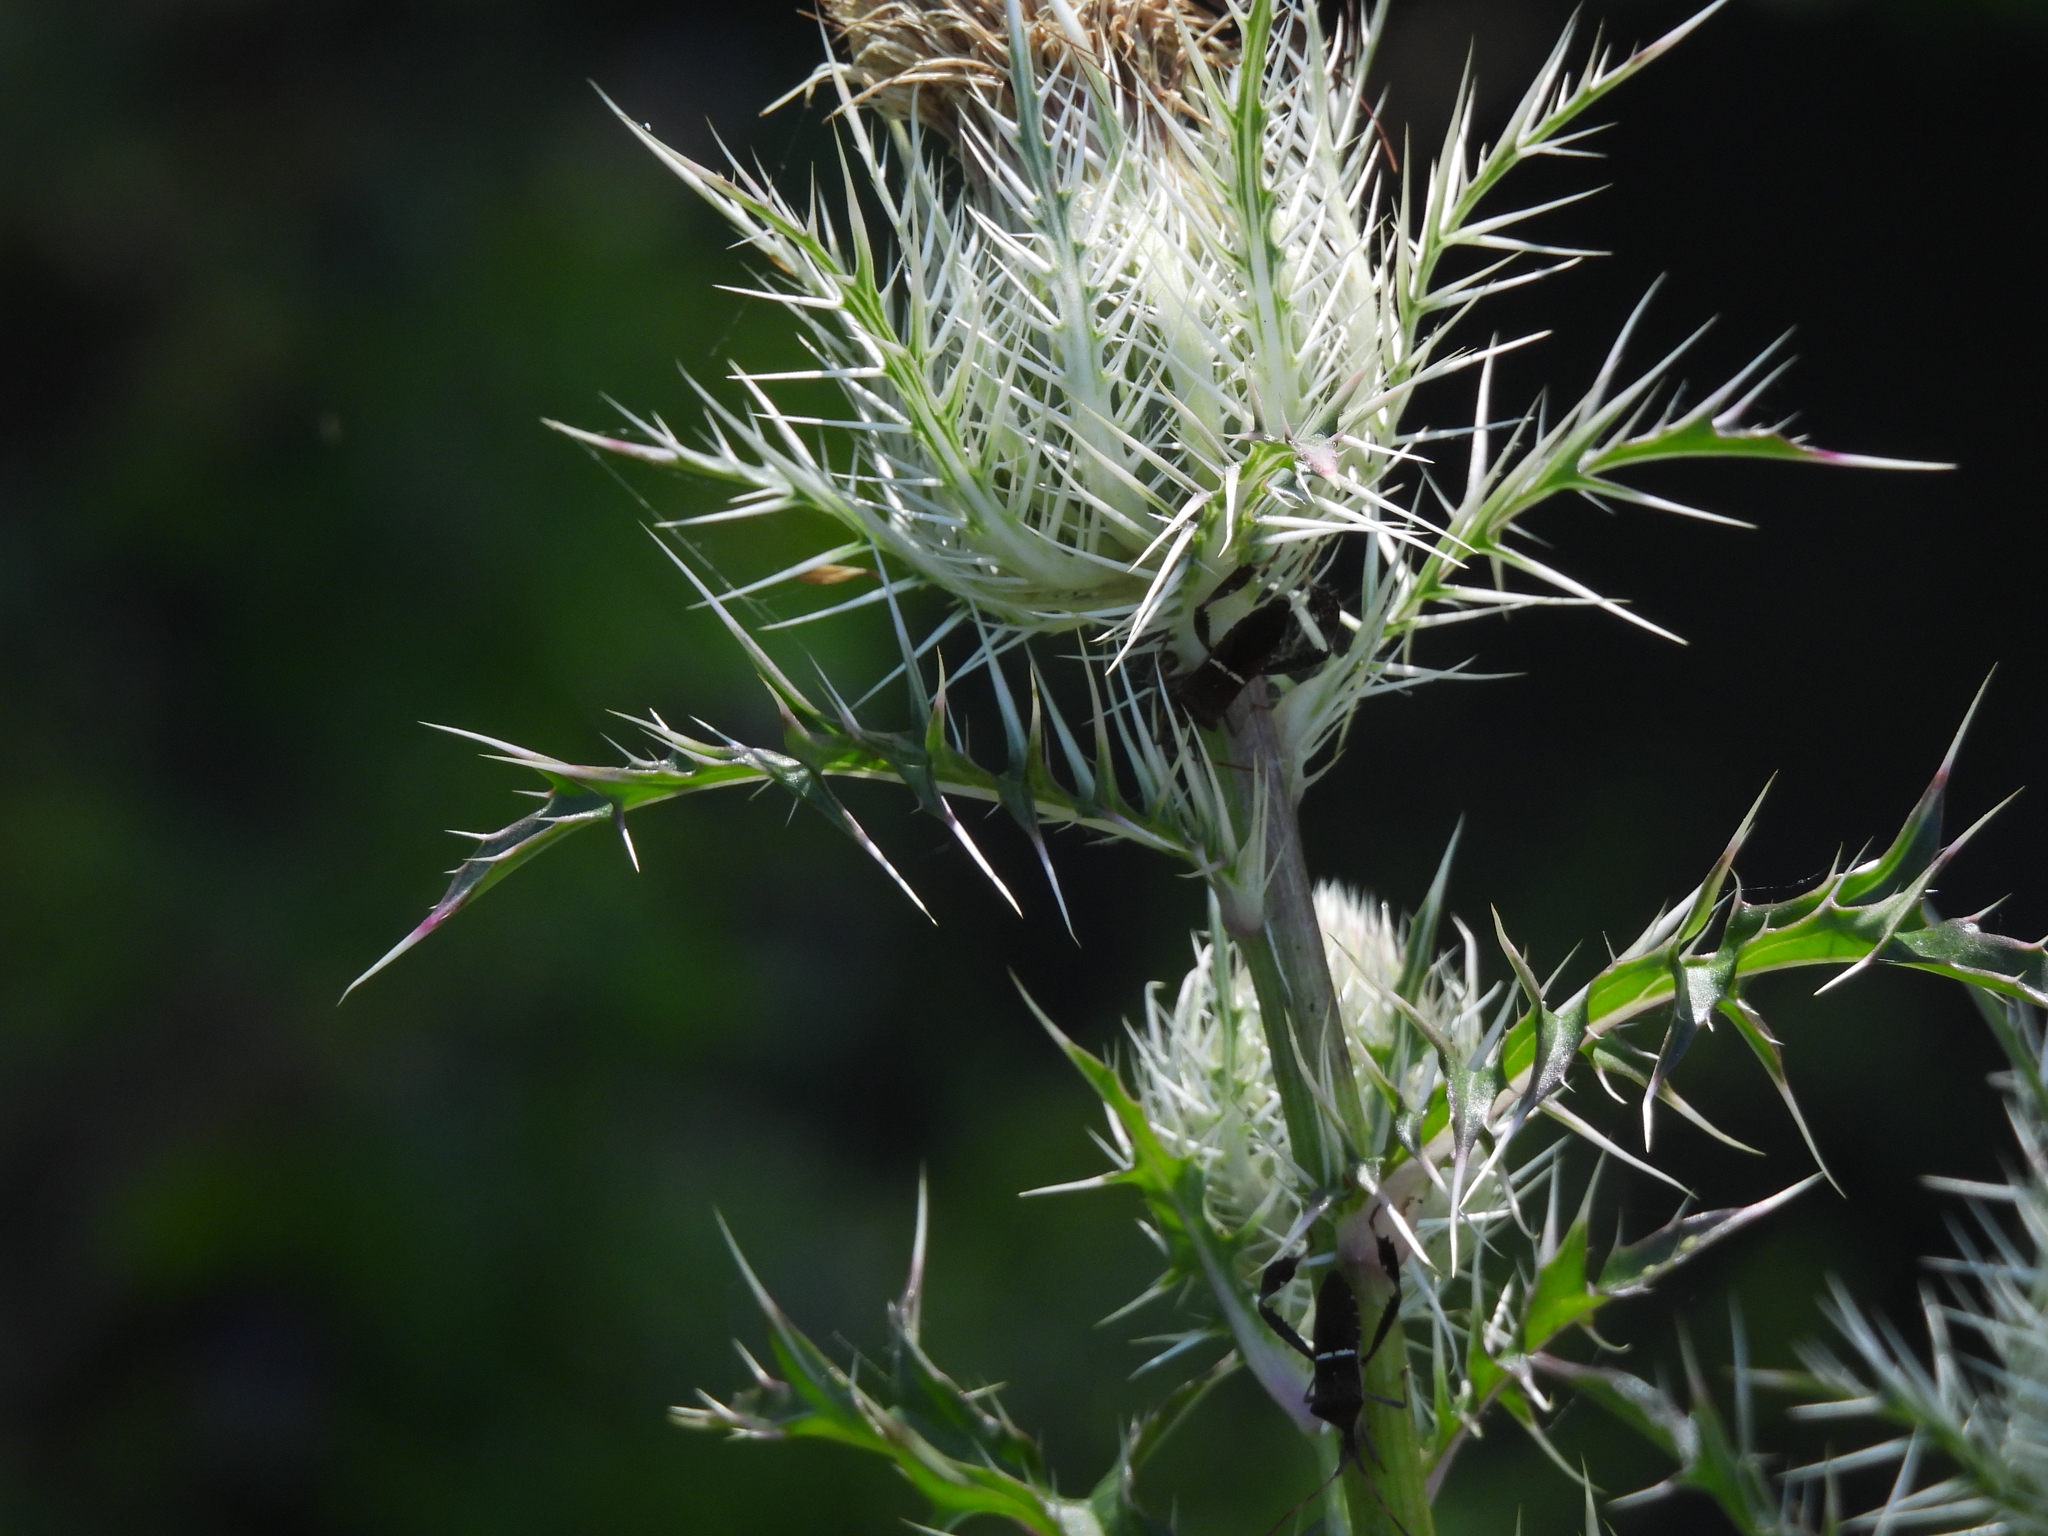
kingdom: Animalia
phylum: Arthropoda
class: Insecta
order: Hemiptera
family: Coreidae
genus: Leptoglossus
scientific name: Leptoglossus phyllopus
